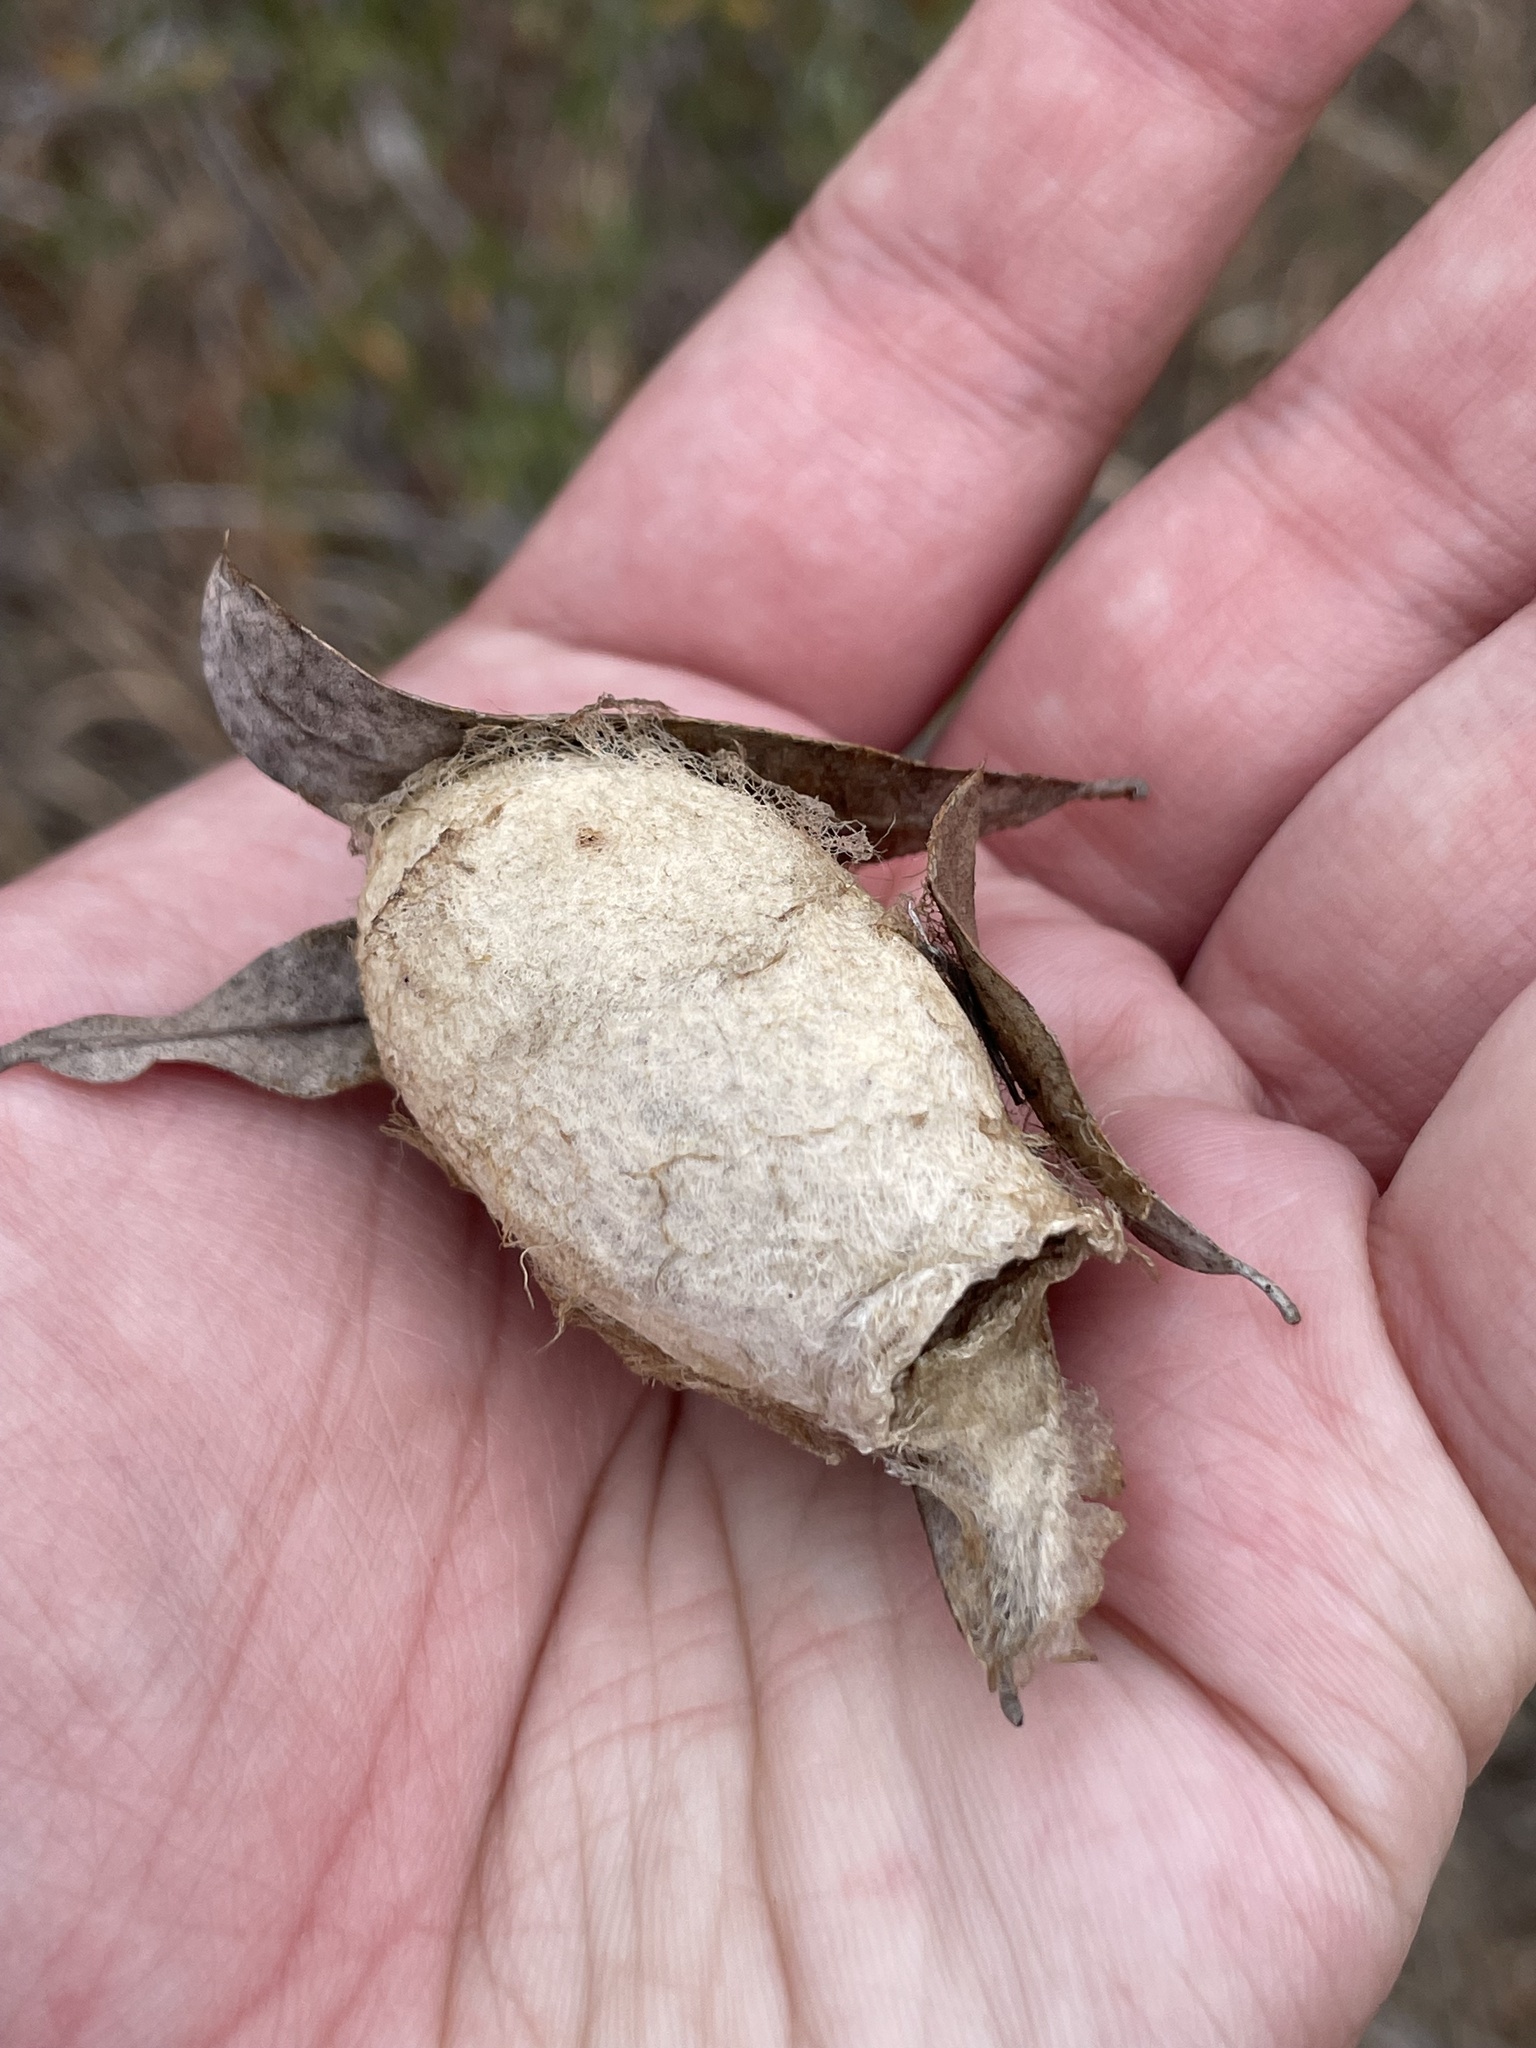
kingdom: Animalia
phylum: Arthropoda
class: Insecta
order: Lepidoptera
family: Saturniidae
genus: Antheraea
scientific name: Antheraea polyphemus
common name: Polyphemus moth
